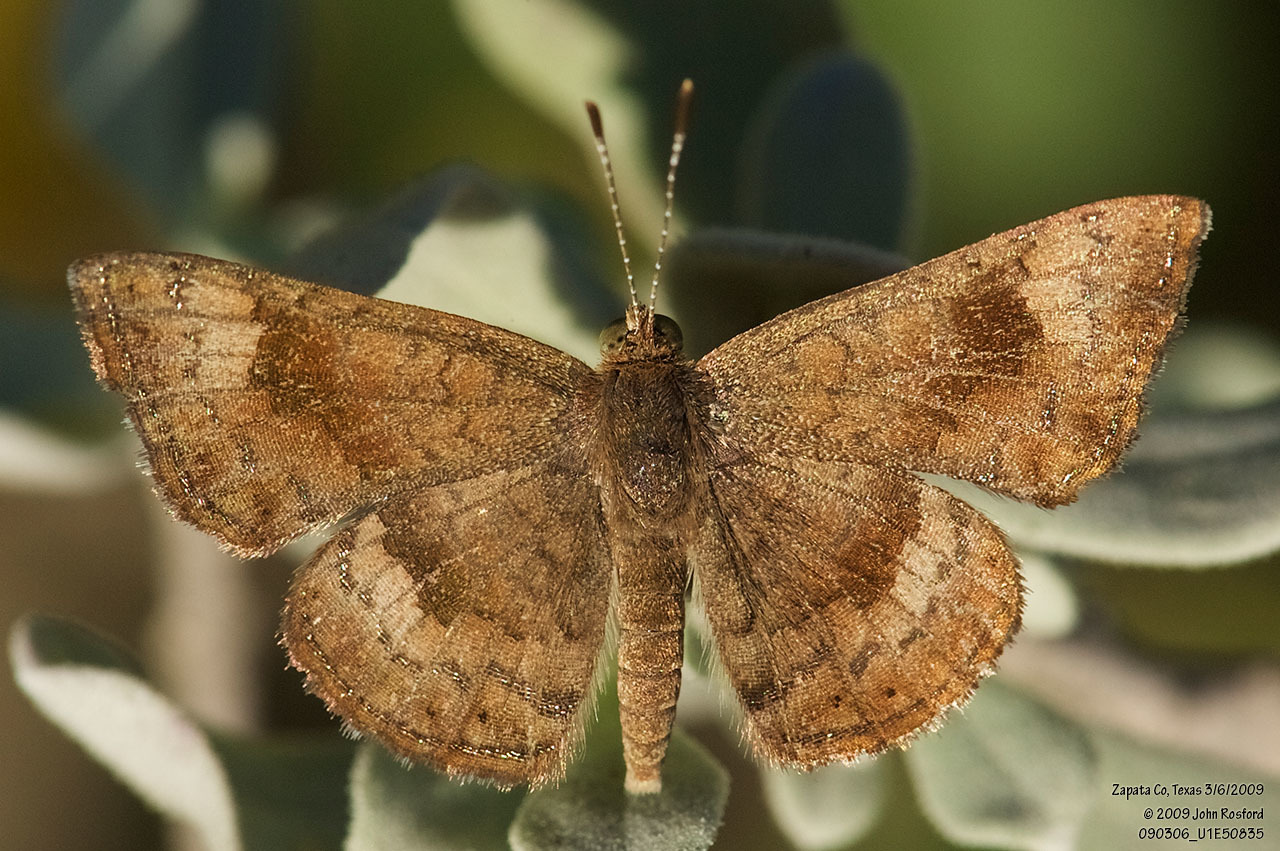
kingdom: Animalia
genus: Calephelis
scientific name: Calephelis nemesis
